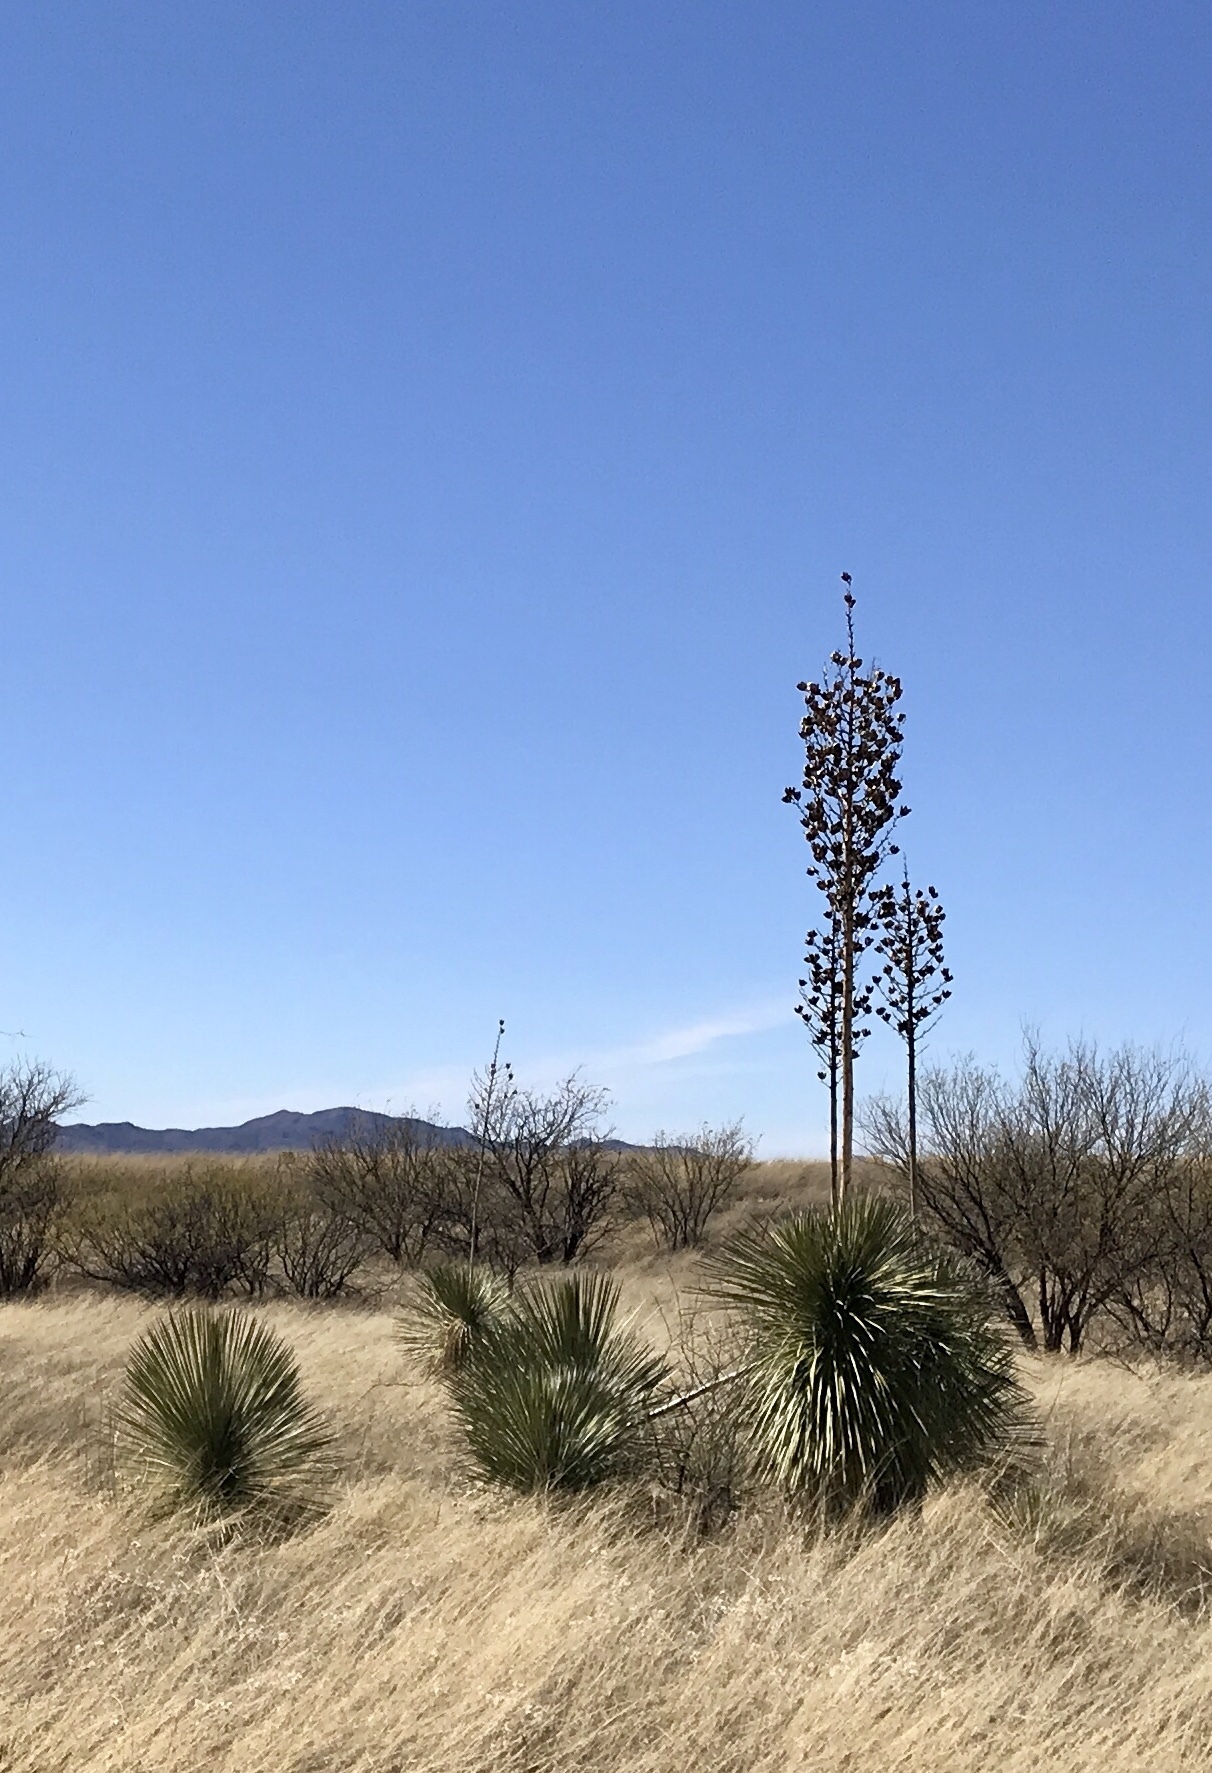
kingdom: Plantae
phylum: Tracheophyta
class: Liliopsida
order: Asparagales
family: Asparagaceae
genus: Yucca
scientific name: Yucca elata
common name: Palmella
